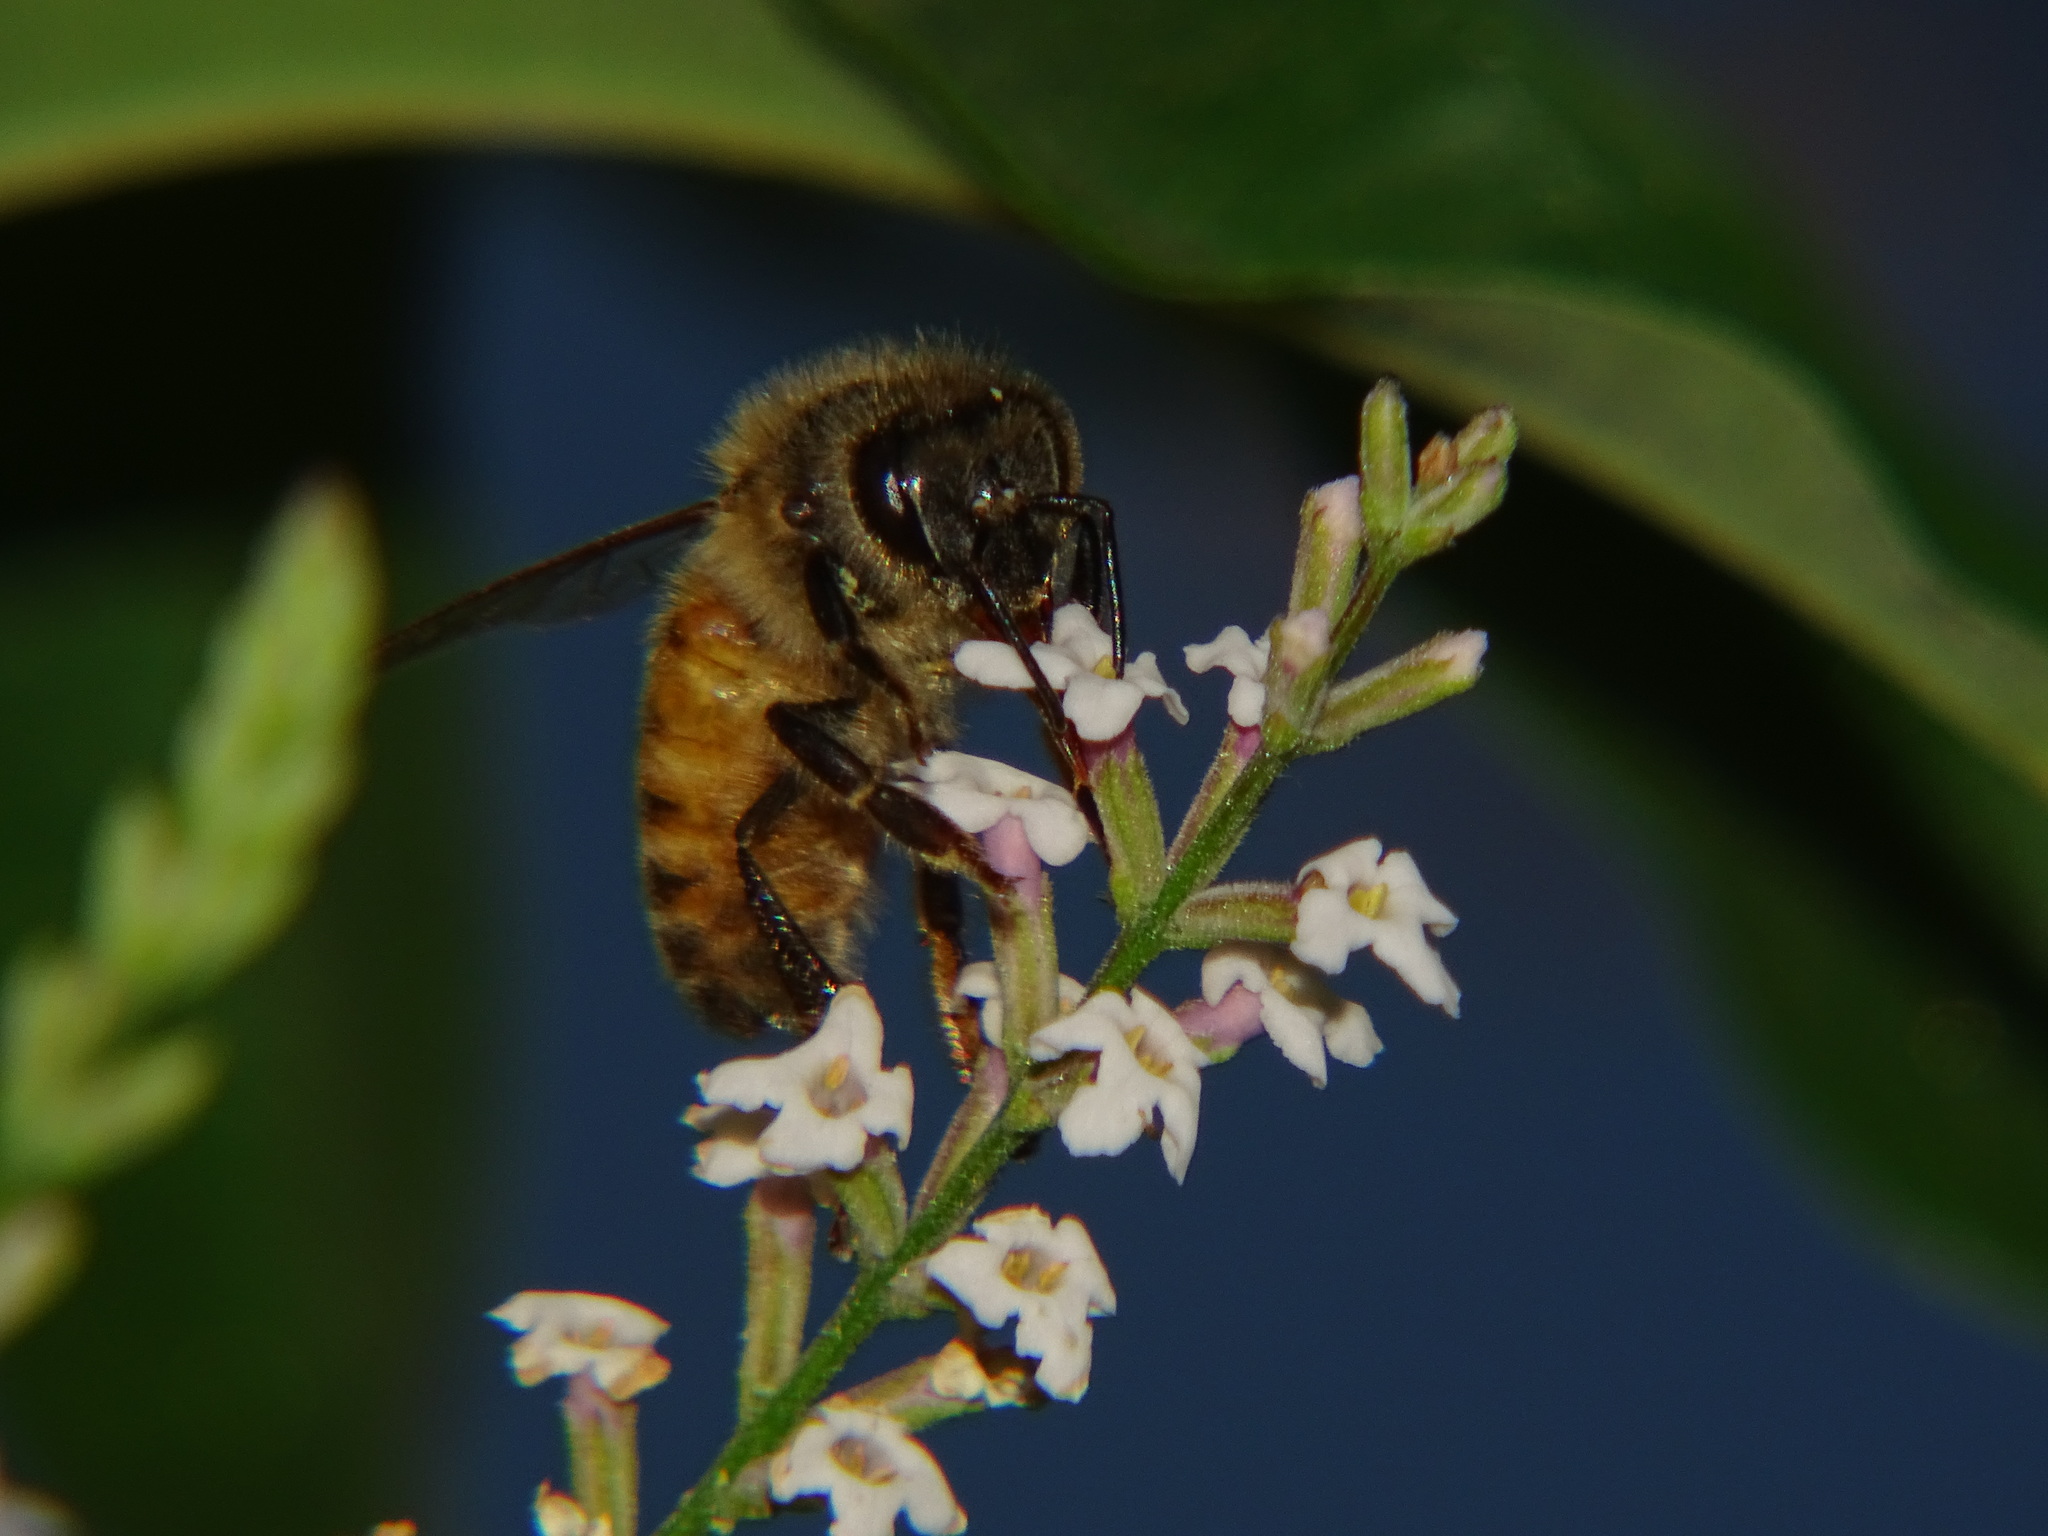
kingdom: Animalia
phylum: Arthropoda
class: Insecta
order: Hymenoptera
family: Apidae
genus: Apis
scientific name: Apis mellifera
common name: Honey bee
